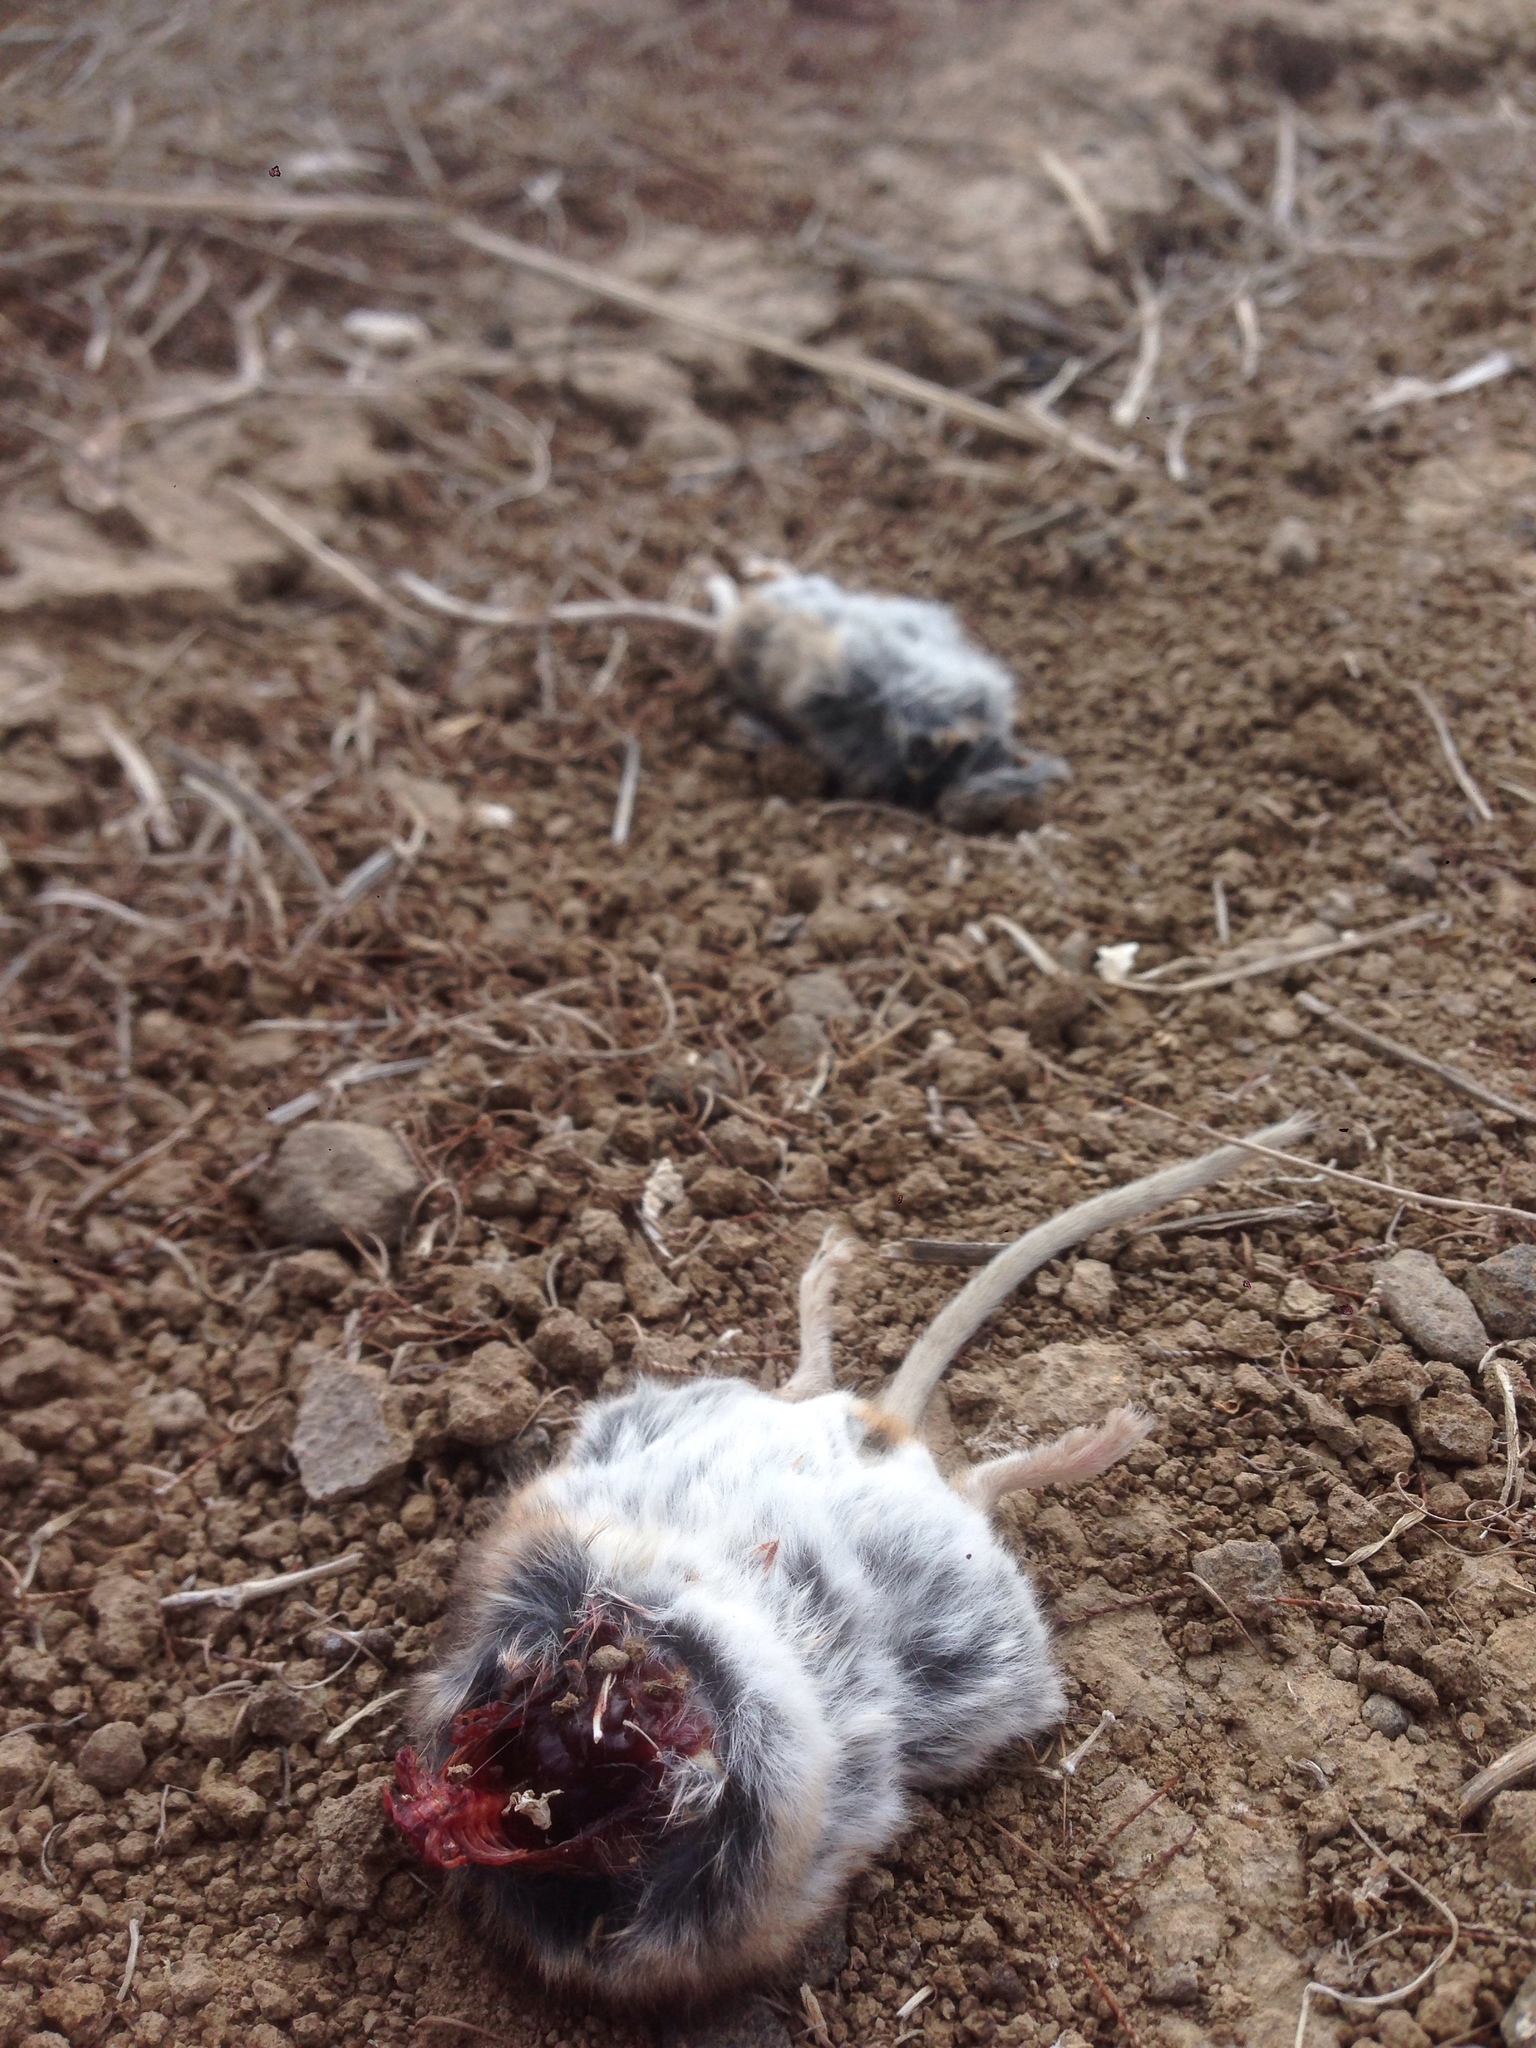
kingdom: Animalia
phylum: Chordata
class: Mammalia
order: Rodentia
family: Cricetidae
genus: Peromyscus
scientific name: Peromyscus maniculatus
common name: Deer mouse
